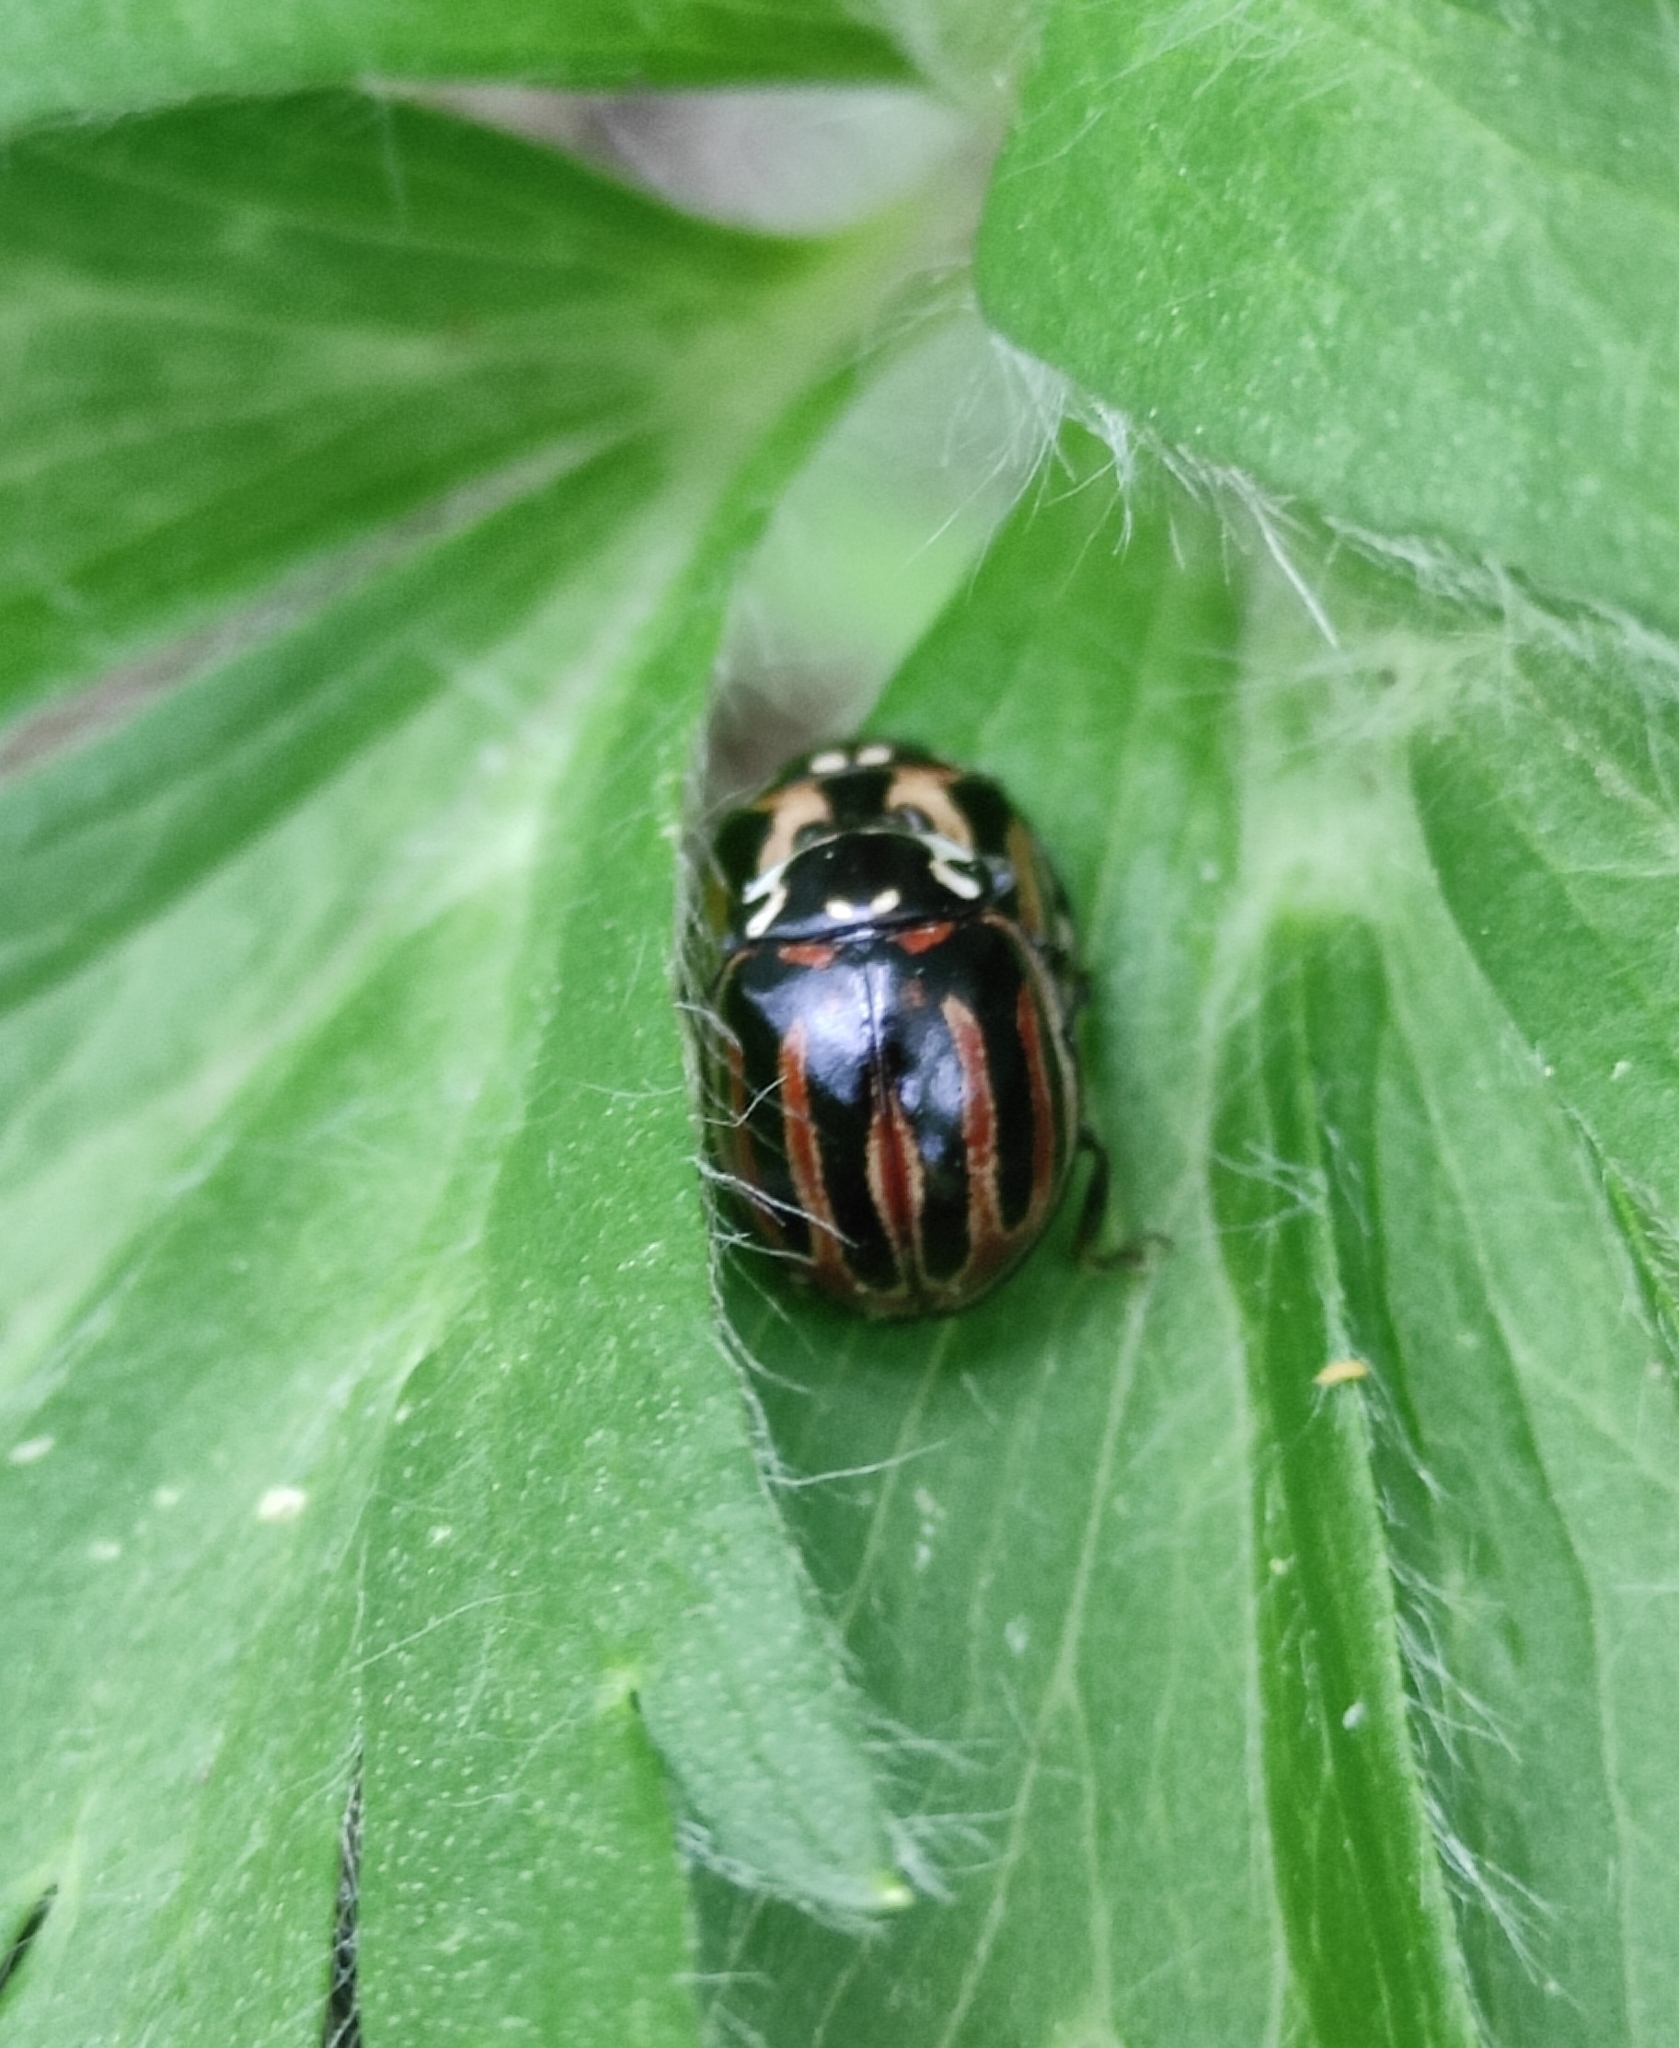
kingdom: Animalia
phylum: Arthropoda
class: Insecta
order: Coleoptera
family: Coccinellidae
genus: Anatis
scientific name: Anatis ocellata
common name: Eyed ladybird
